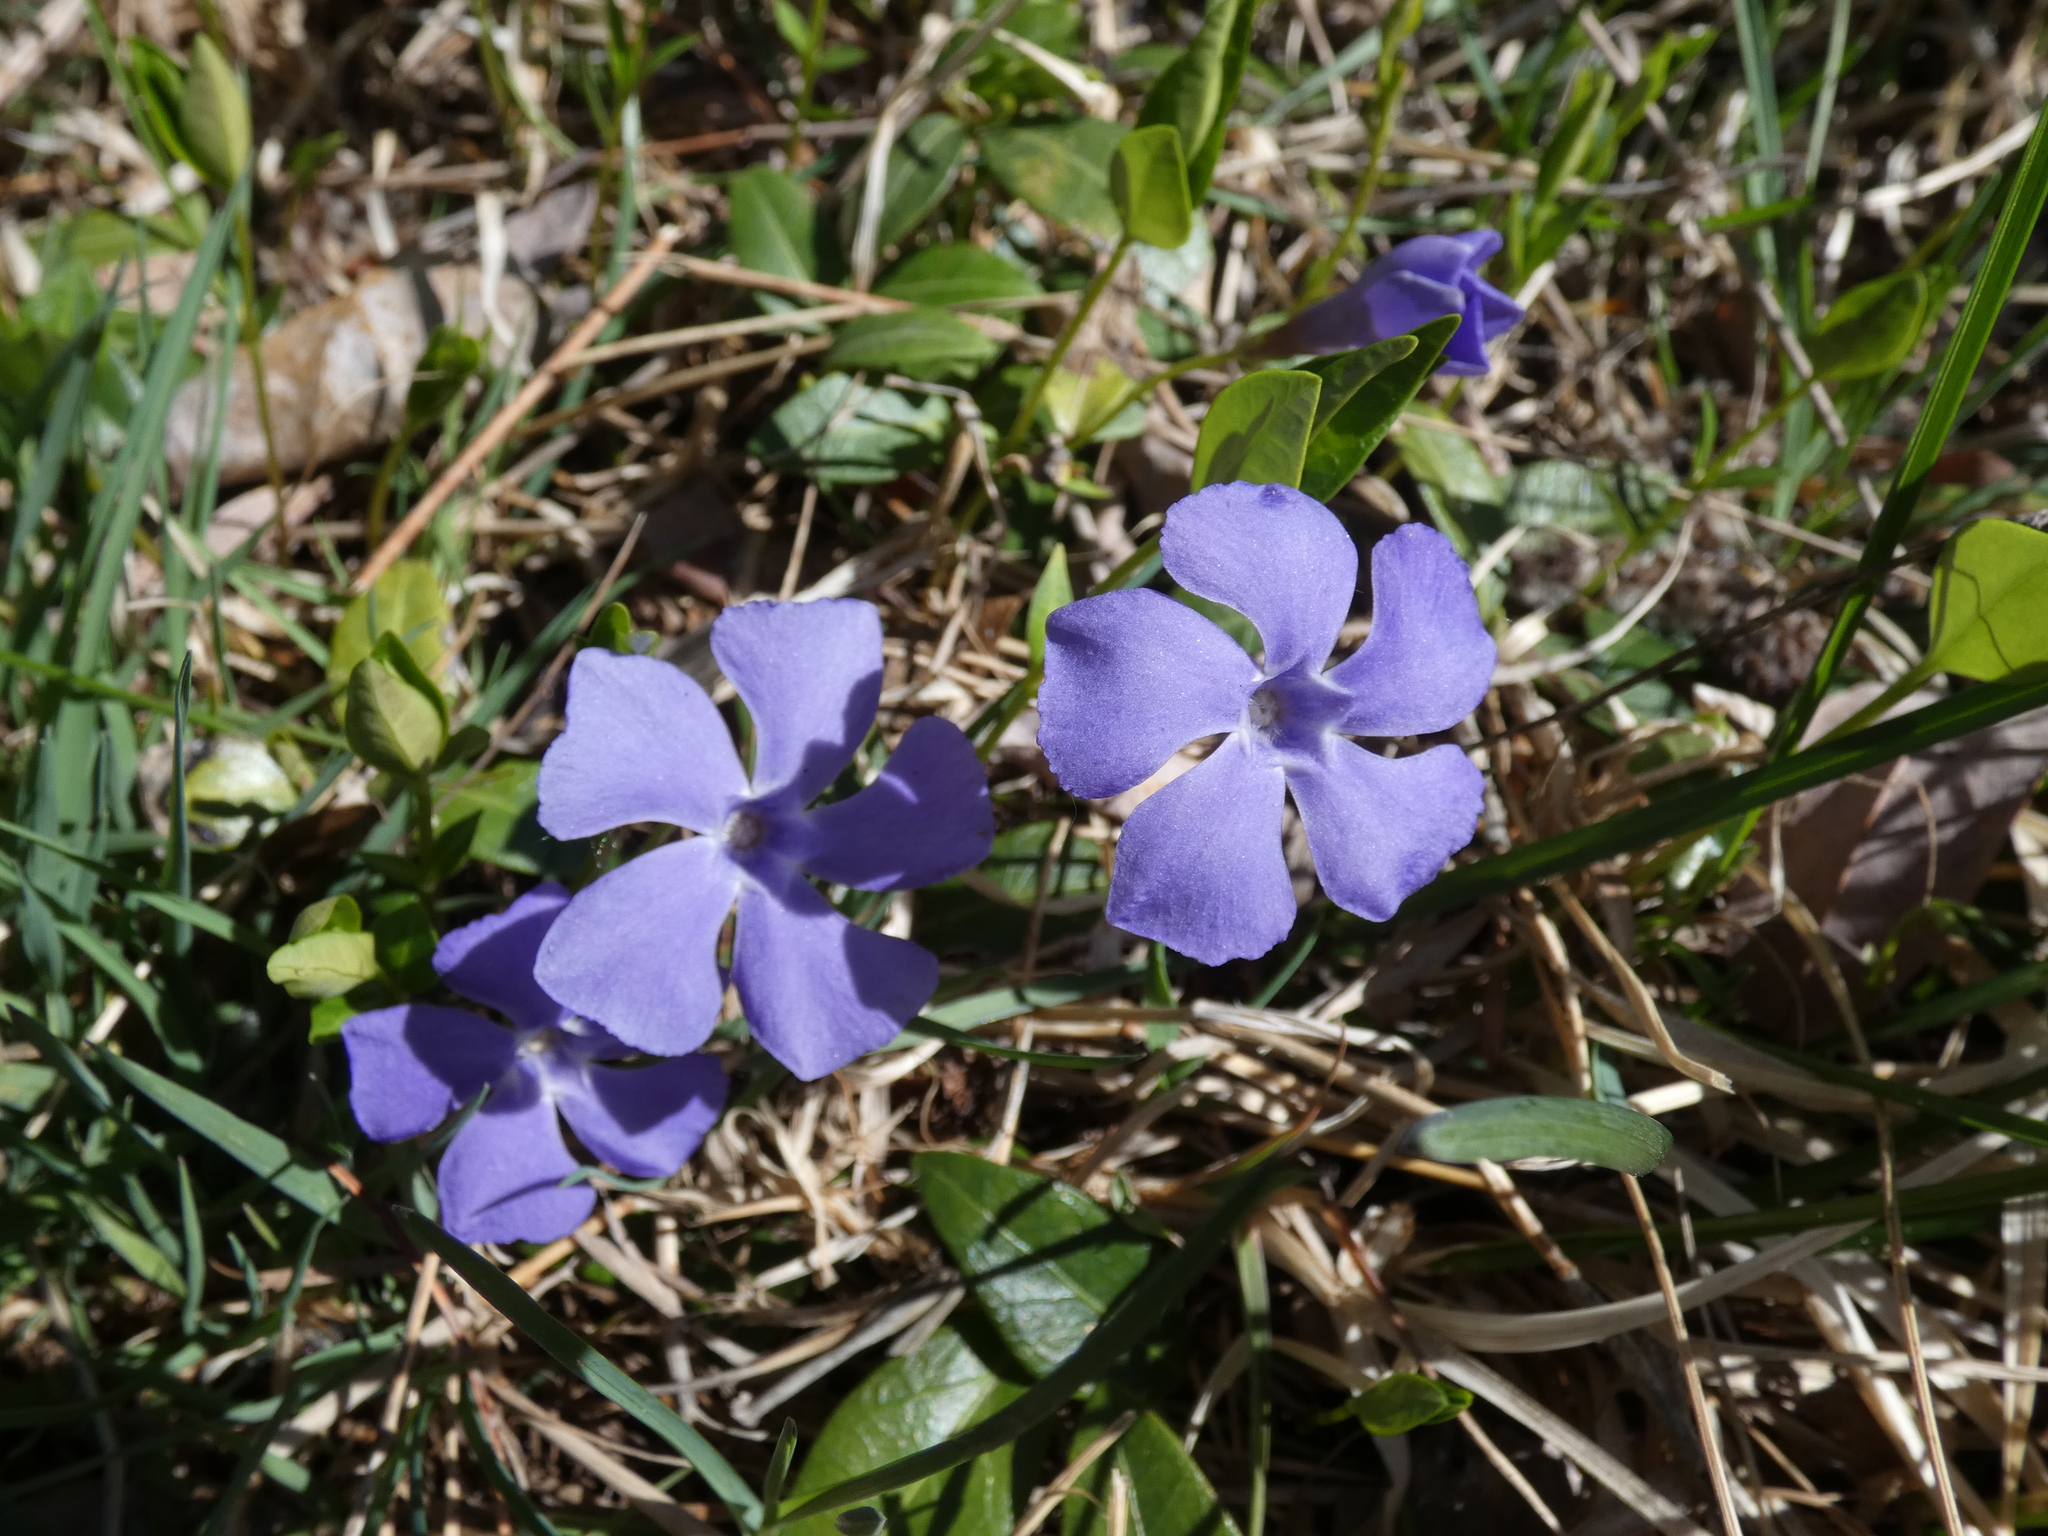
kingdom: Plantae
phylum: Tracheophyta
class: Magnoliopsida
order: Gentianales
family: Apocynaceae
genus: Vinca
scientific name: Vinca minor
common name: Lesser periwinkle
